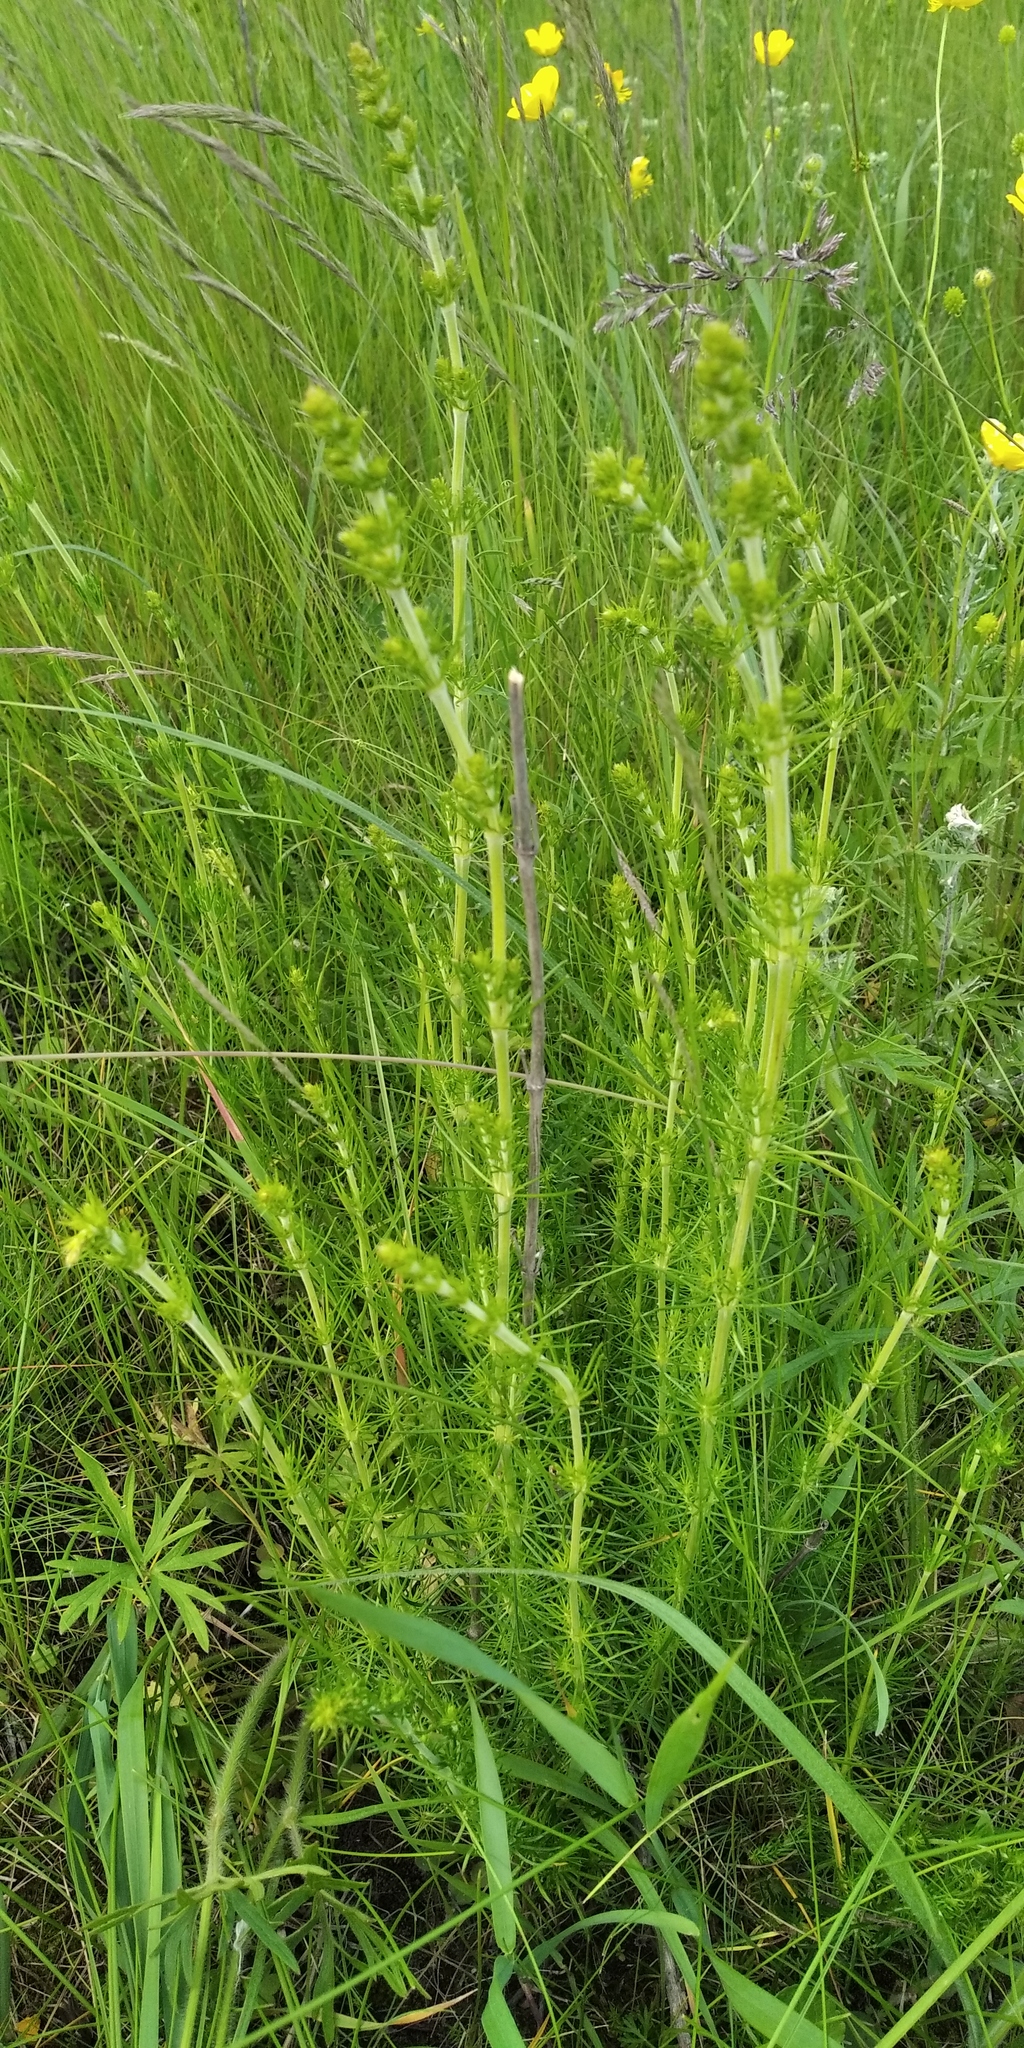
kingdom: Plantae
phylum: Tracheophyta
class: Magnoliopsida
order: Gentianales
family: Rubiaceae
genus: Galium
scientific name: Galium verum
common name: Lady's bedstraw
